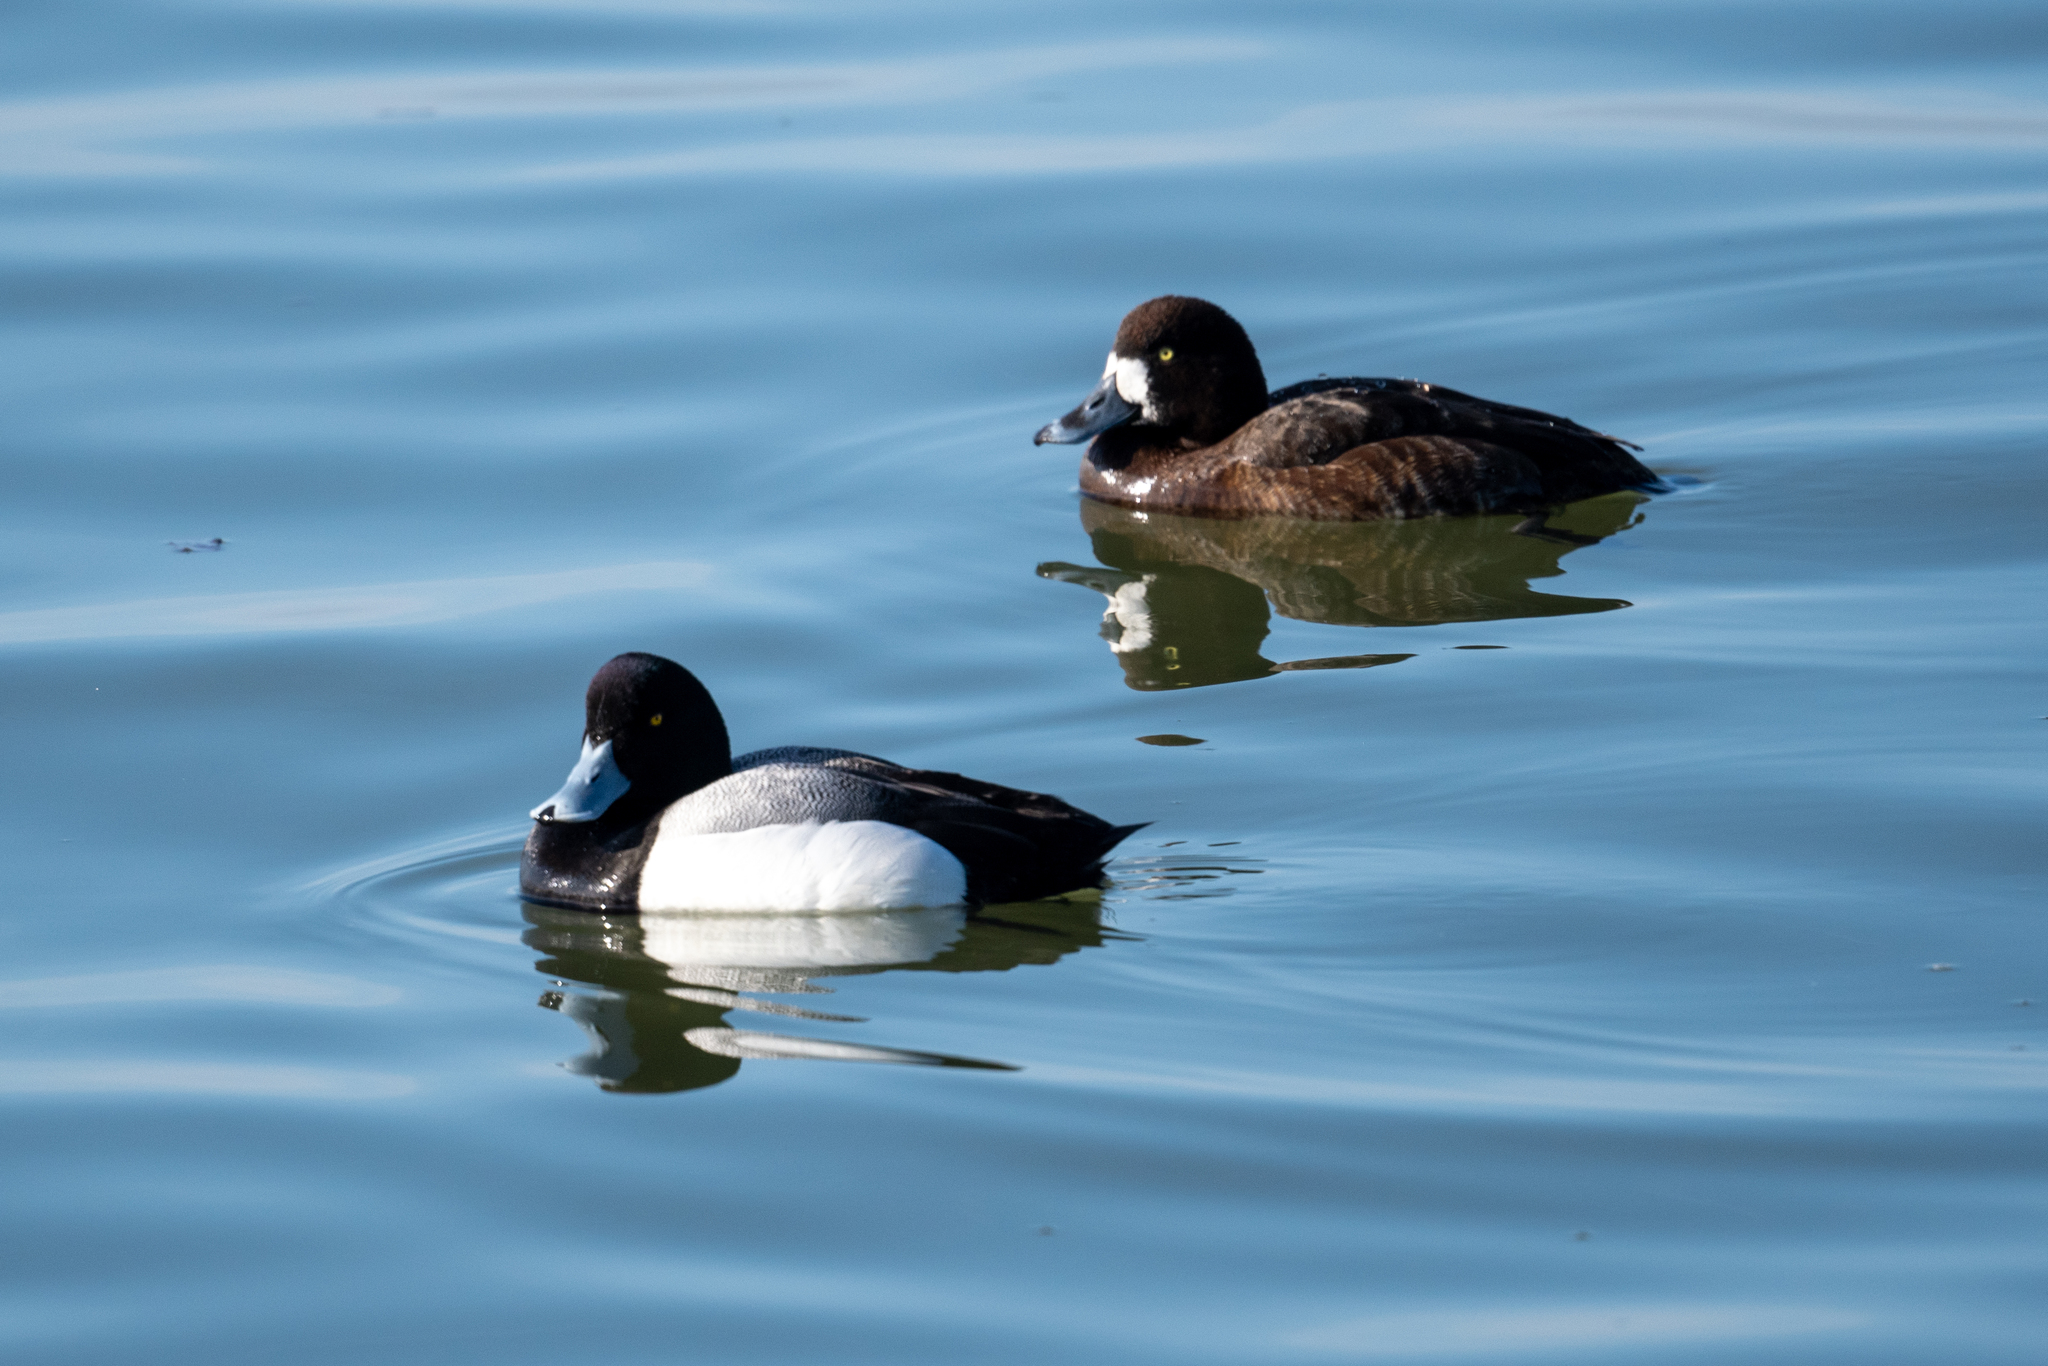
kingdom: Animalia
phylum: Chordata
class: Aves
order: Anseriformes
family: Anatidae
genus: Aythya
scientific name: Aythya marila
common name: Greater scaup
